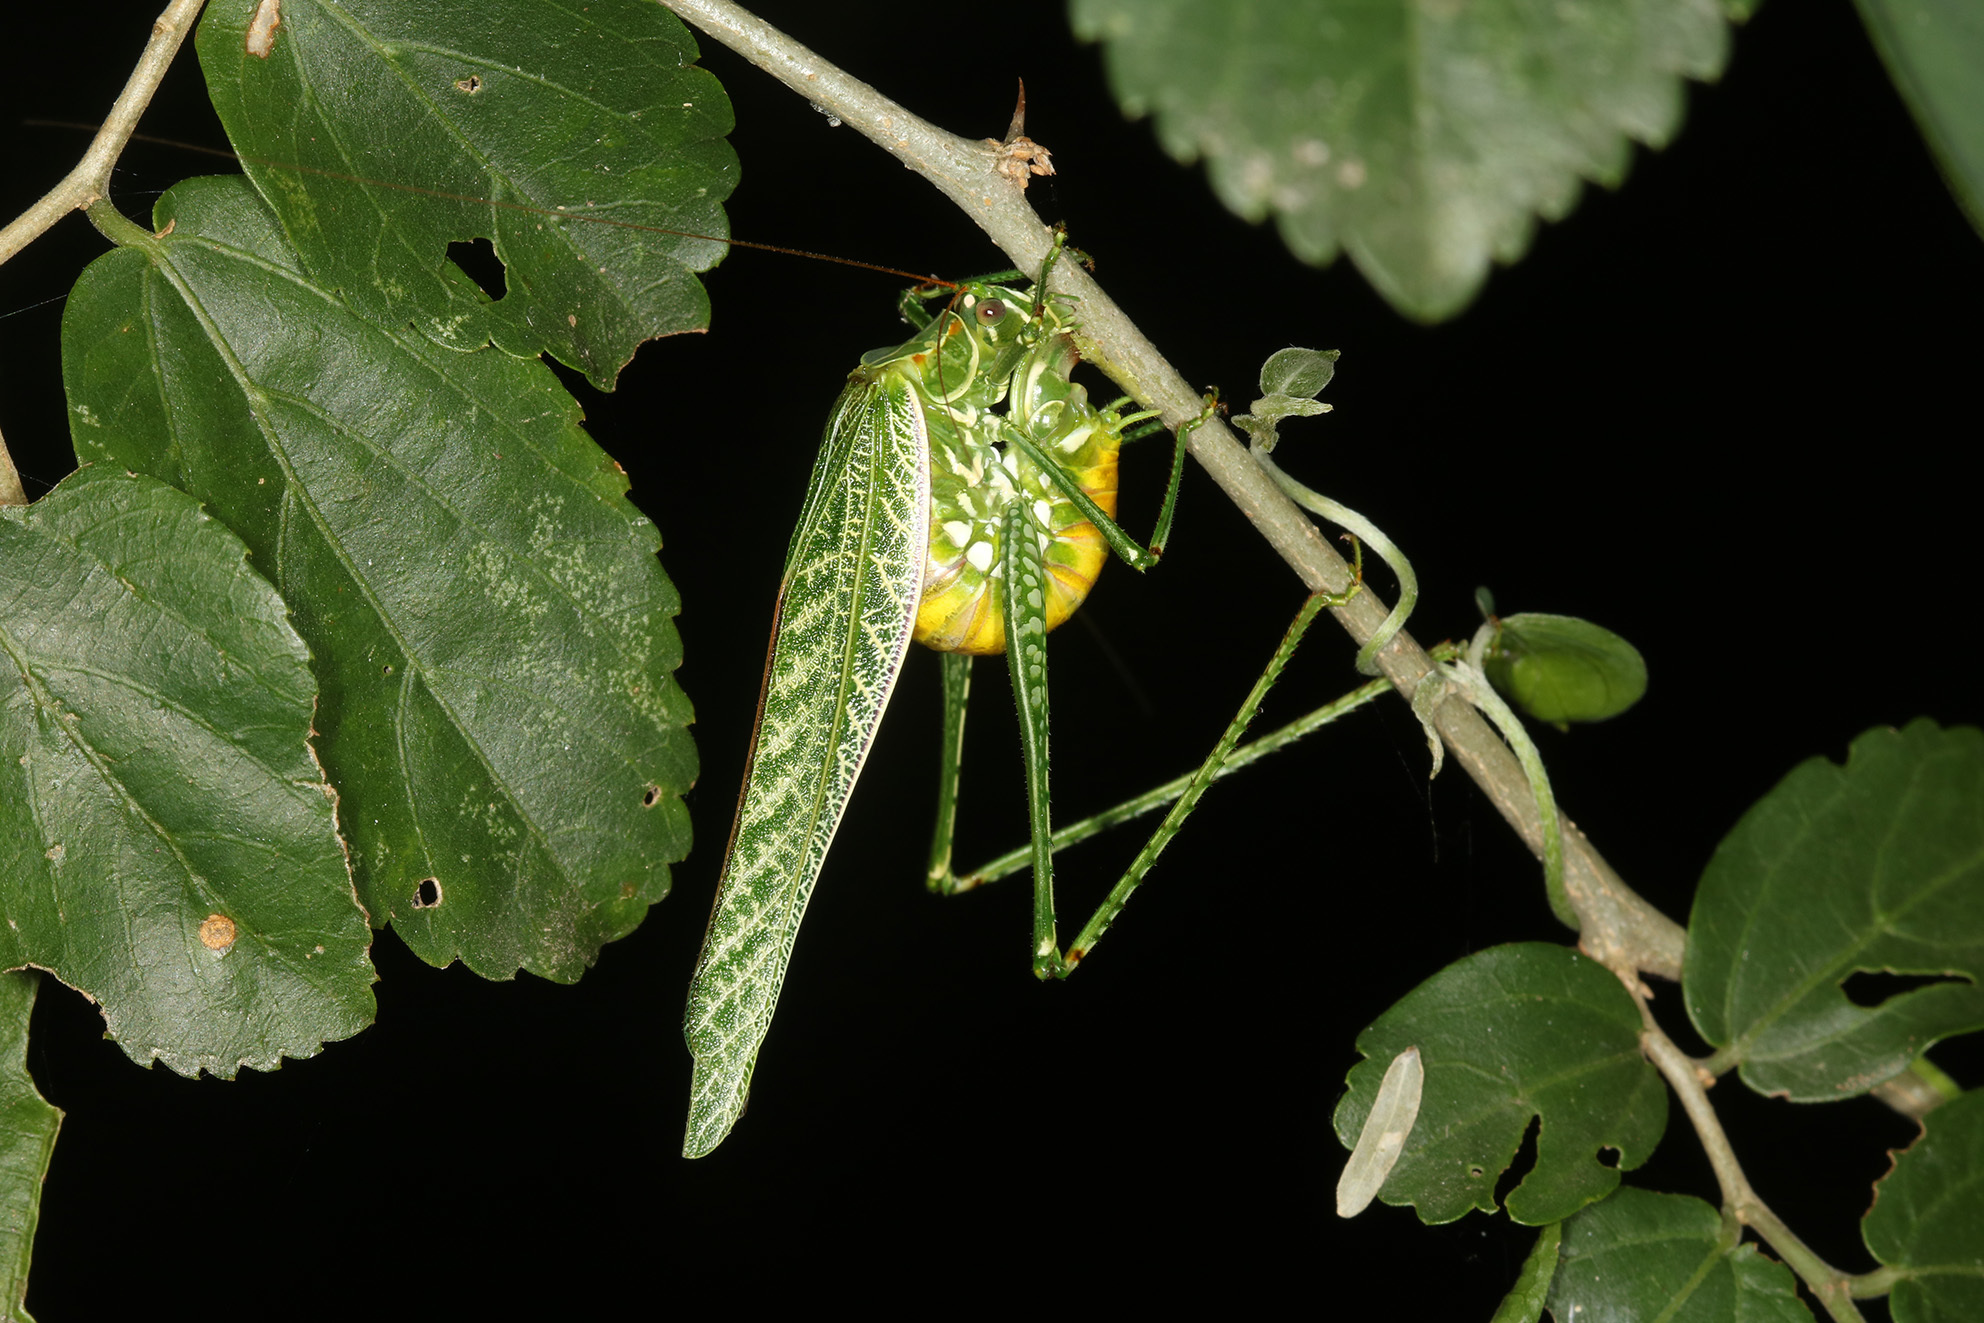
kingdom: Animalia
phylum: Arthropoda
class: Insecta
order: Orthoptera
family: Tettigoniidae
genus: Sictuna
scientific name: Sictuna boliviana
